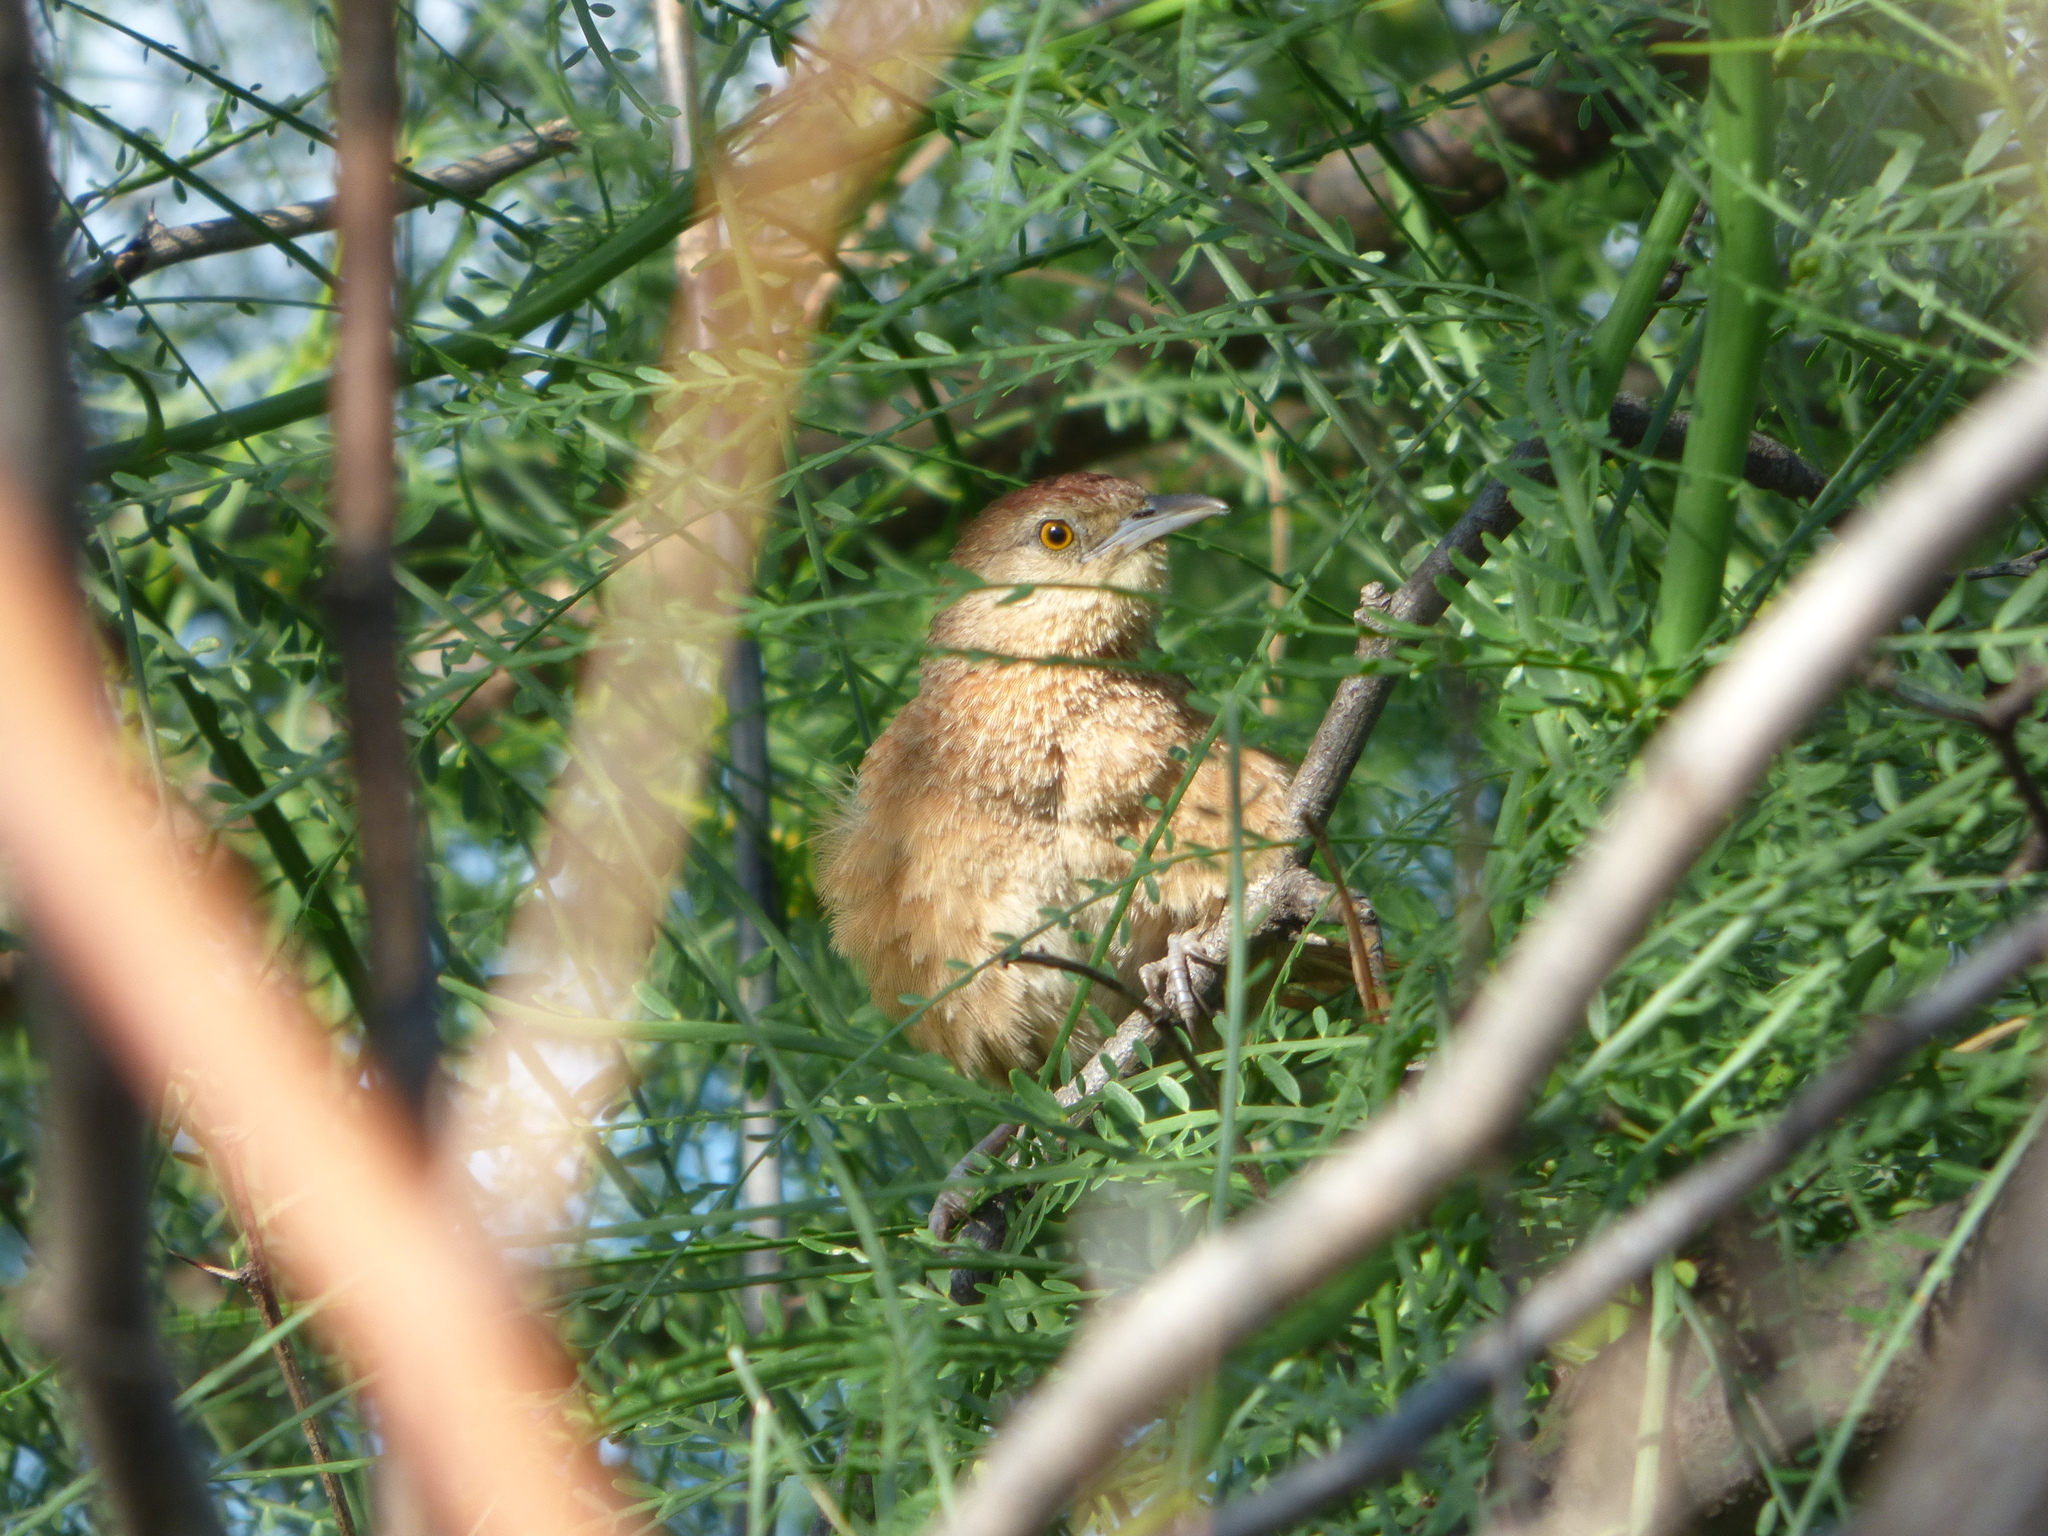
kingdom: Animalia
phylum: Chordata
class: Aves
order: Passeriformes
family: Furnariidae
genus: Phacellodomus
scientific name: Phacellodomus striaticollis
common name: Freckle-breasted thornbird
